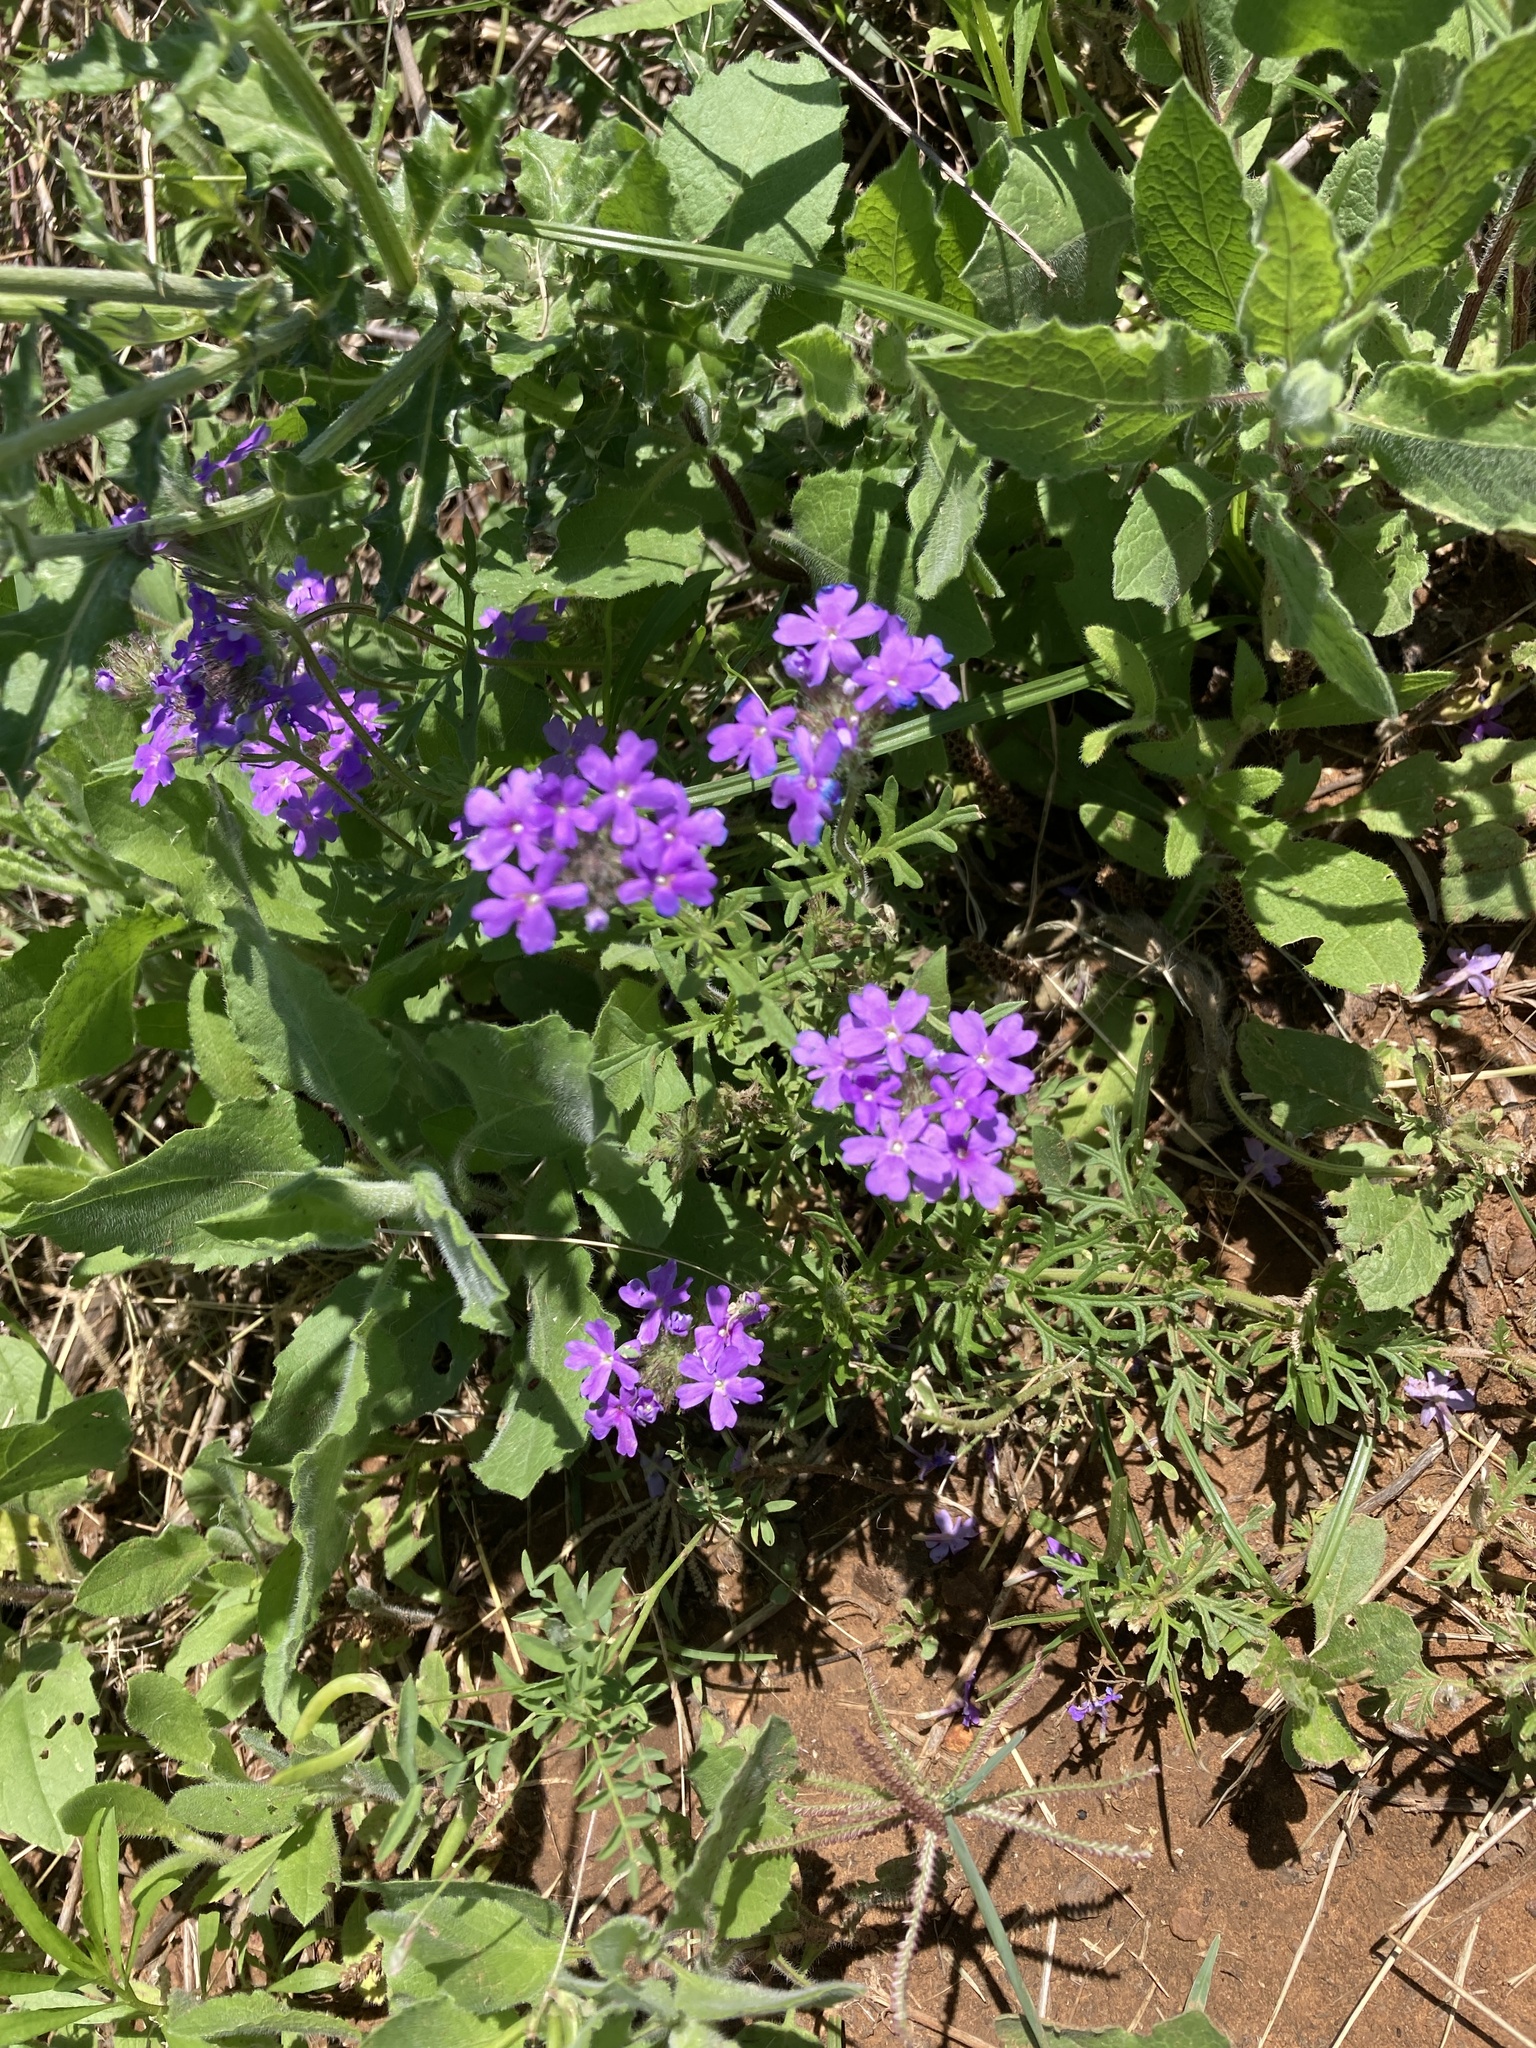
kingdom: Plantae
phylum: Tracheophyta
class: Magnoliopsida
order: Lamiales
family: Verbenaceae
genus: Verbena
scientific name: Verbena bipinnatifida
